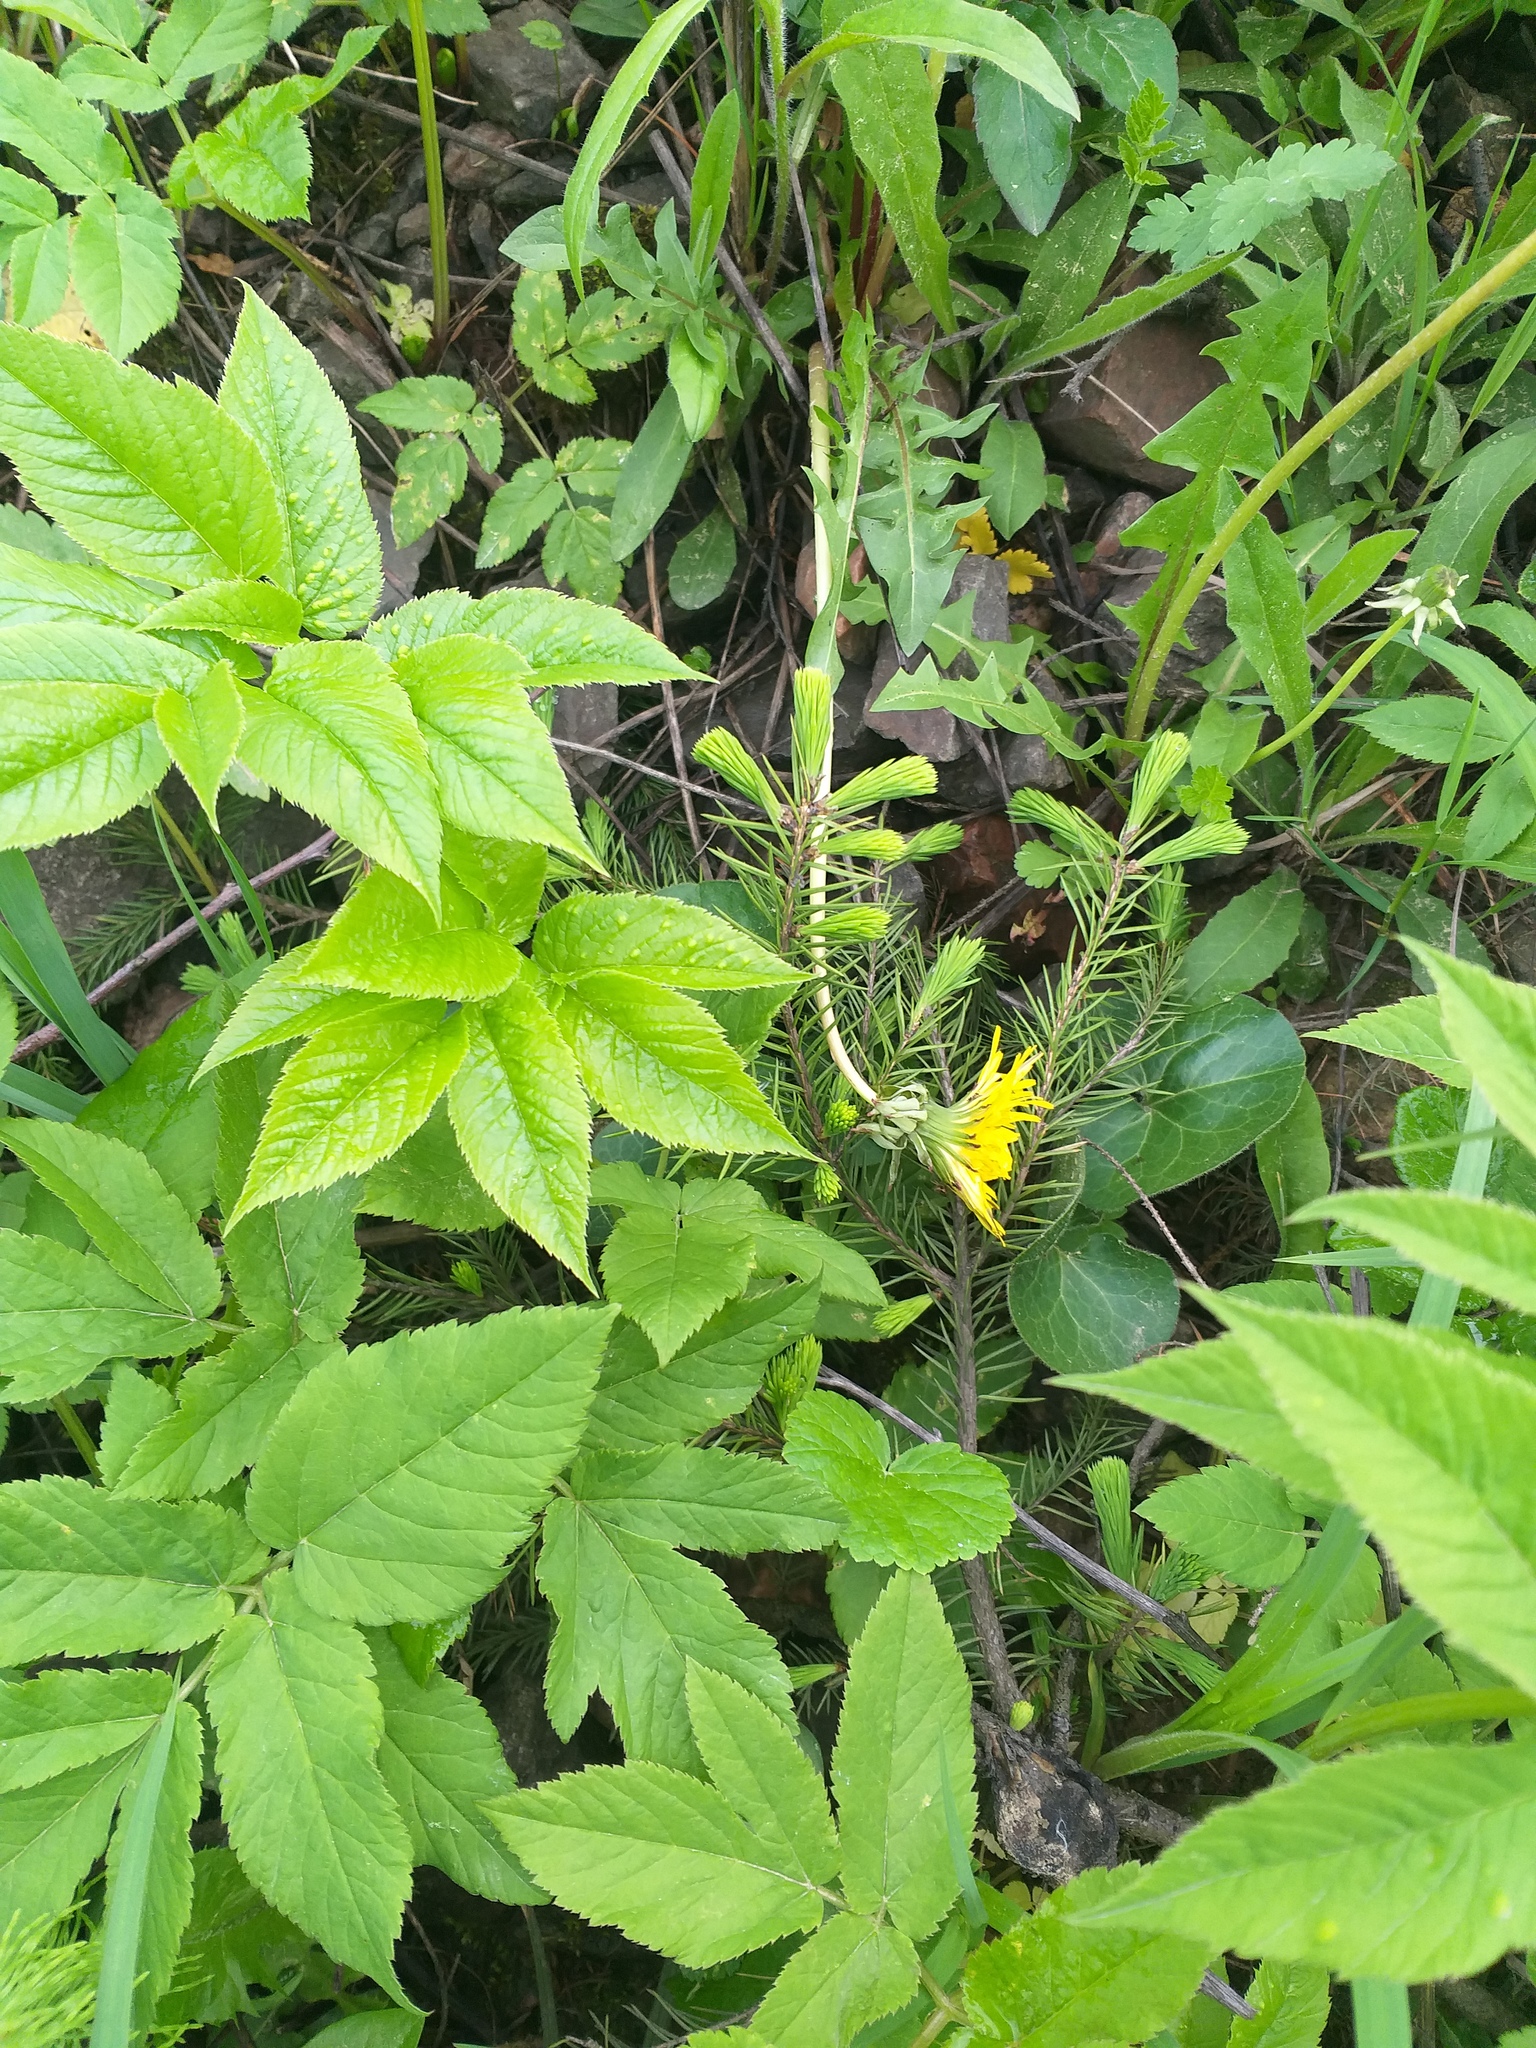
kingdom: Plantae
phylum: Tracheophyta
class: Pinopsida
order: Pinales
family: Pinaceae
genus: Picea
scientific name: Picea abies
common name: Norway spruce
